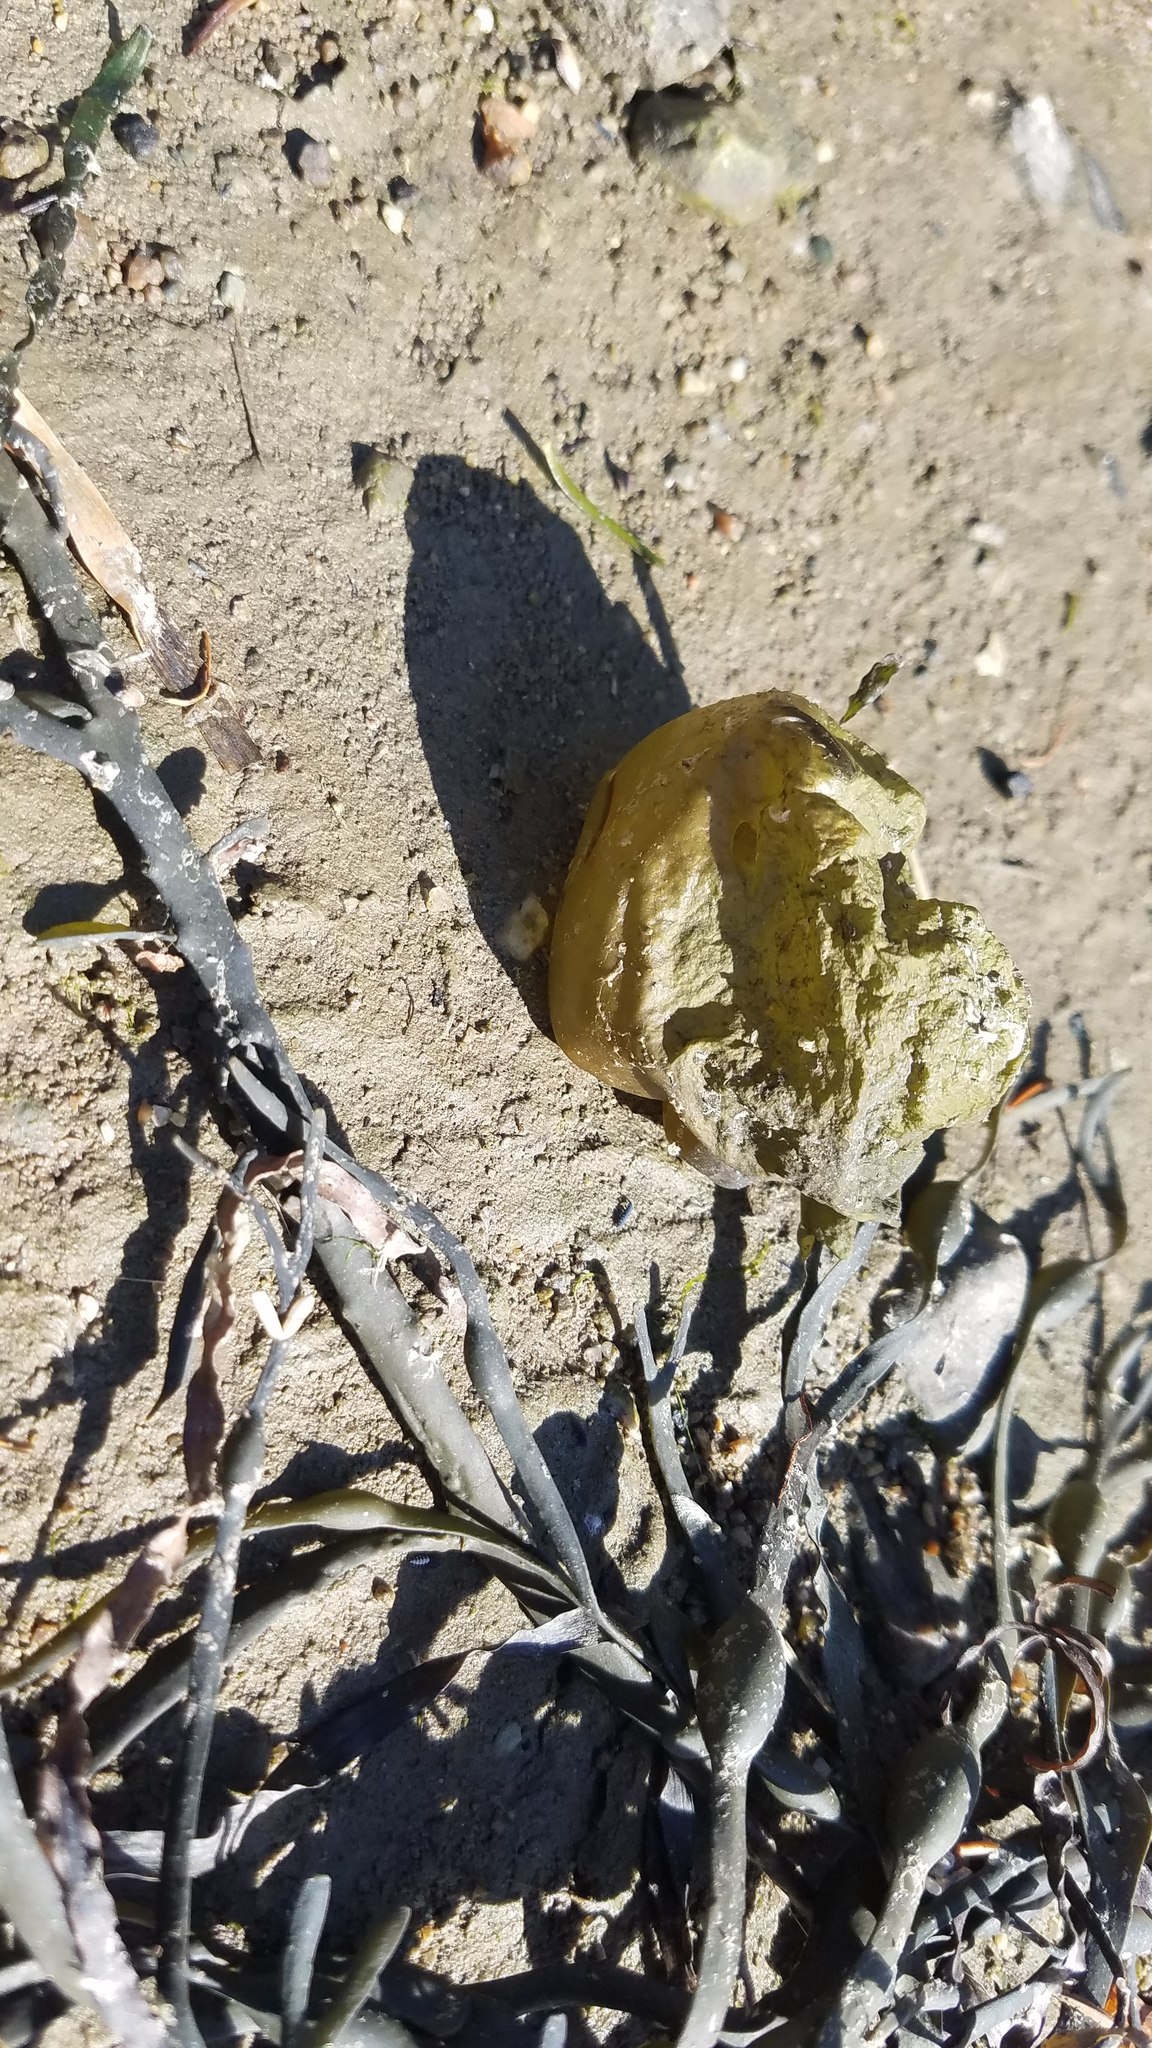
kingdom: Chromista
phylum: Ochrophyta
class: Phaeophyceae
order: Scytosiphonales
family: Scytosiphonaceae
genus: Colpomenia
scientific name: Colpomenia peregrina
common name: Oyster thief
